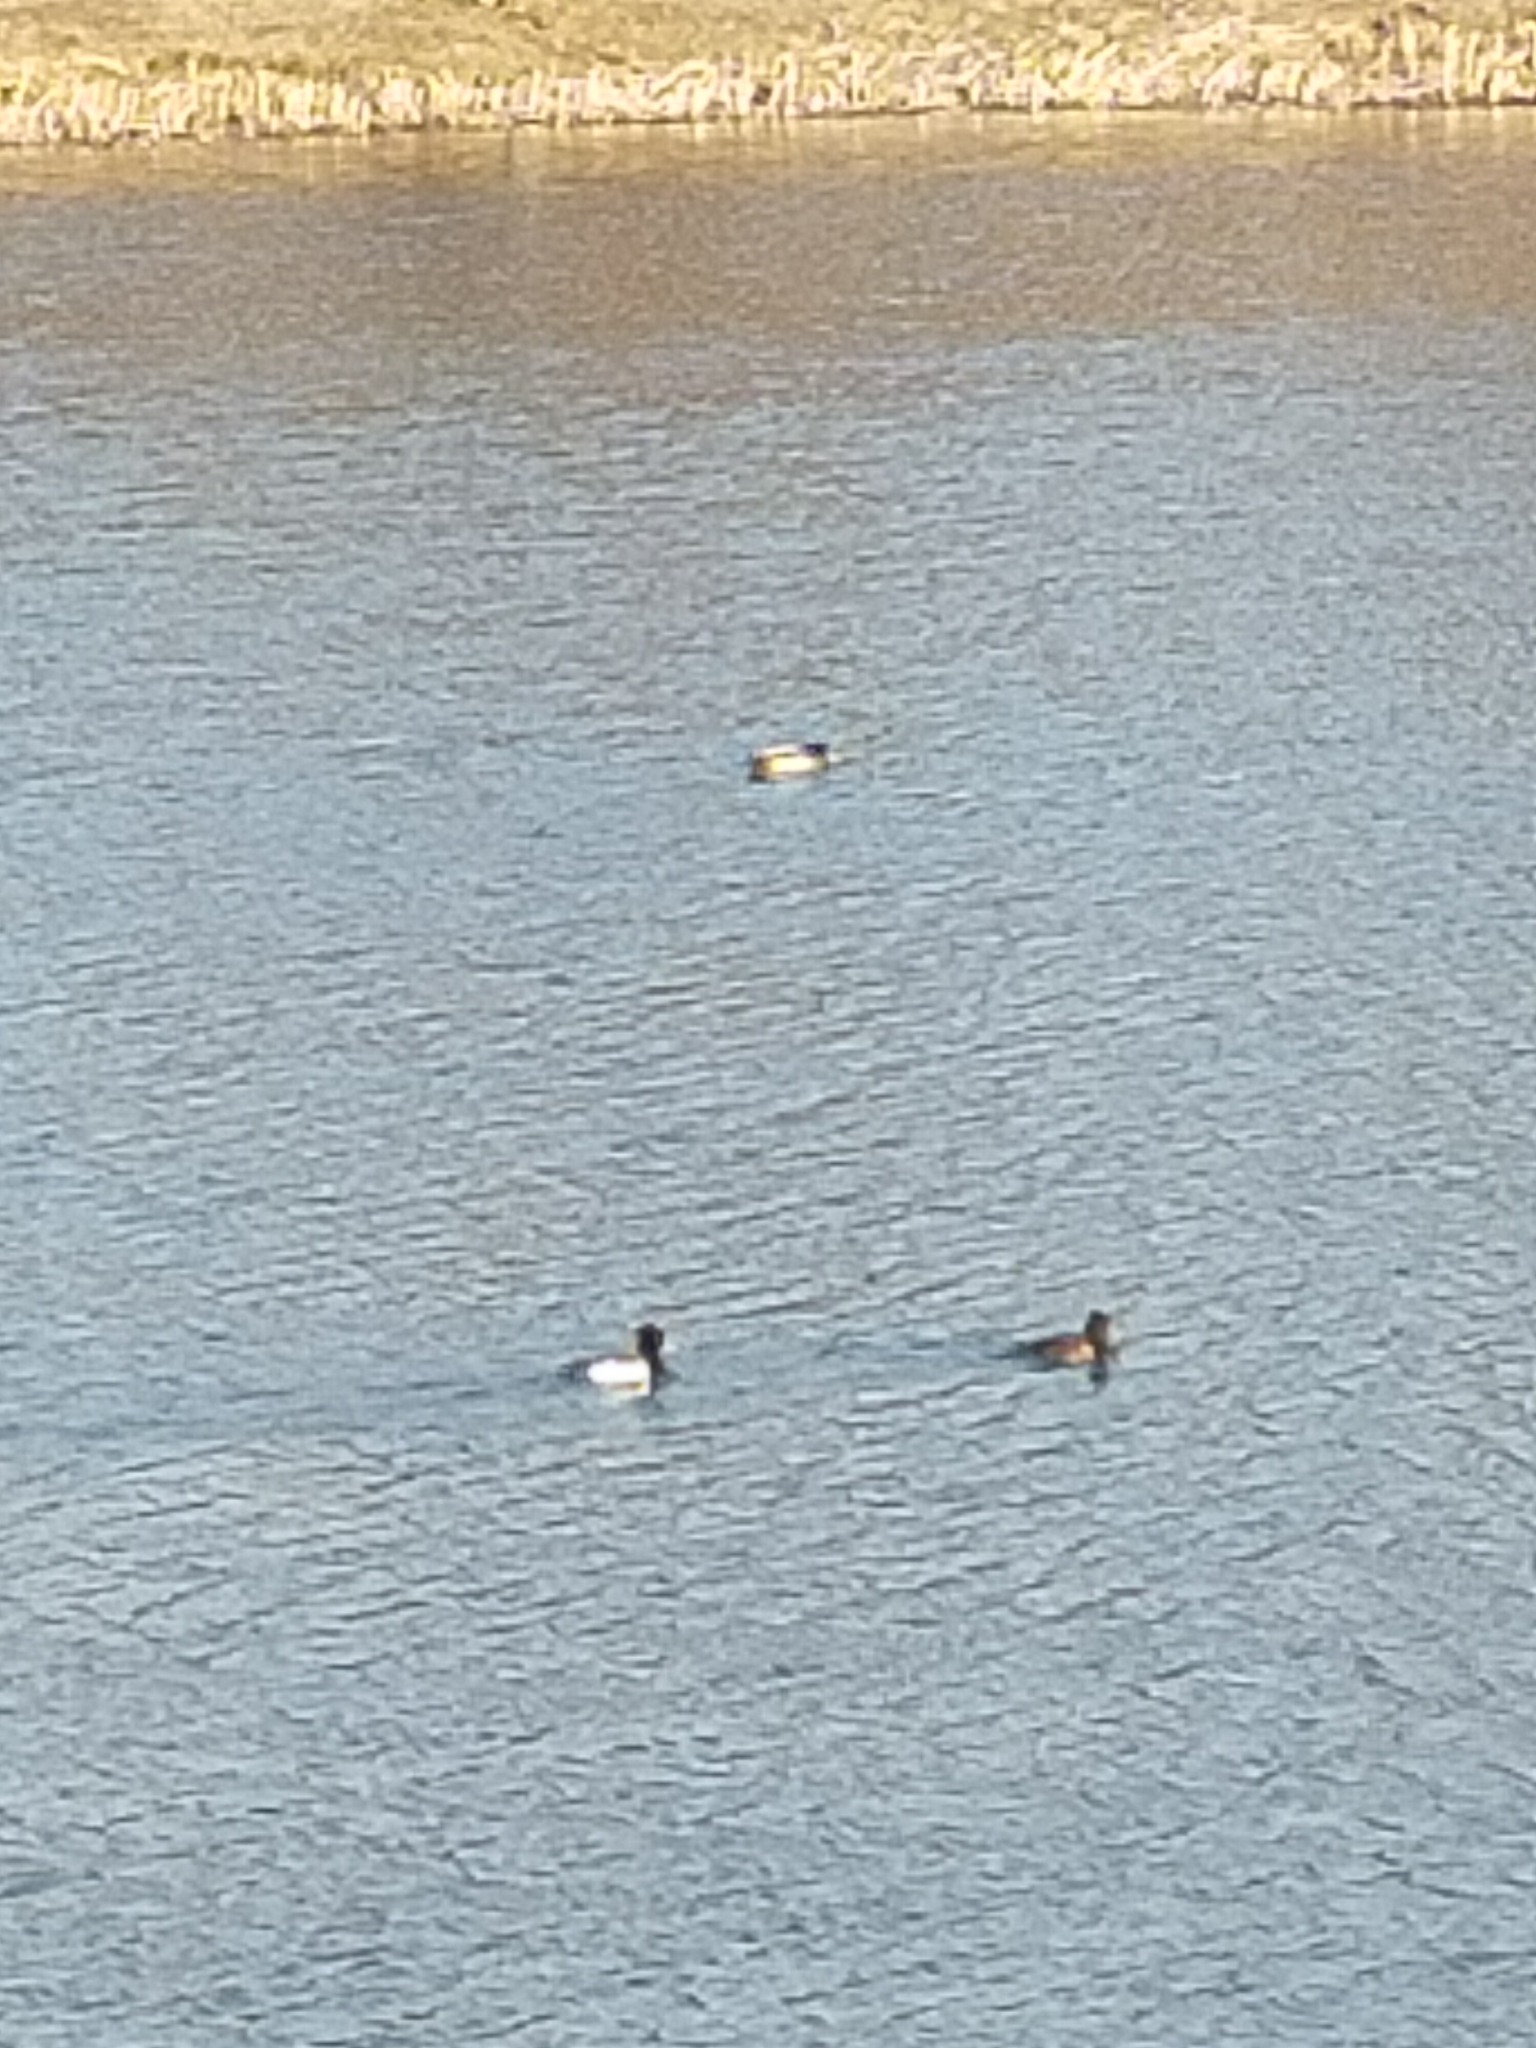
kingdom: Animalia
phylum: Chordata
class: Aves
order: Anseriformes
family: Anatidae
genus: Aythya
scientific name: Aythya fuligula
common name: Tufted duck
